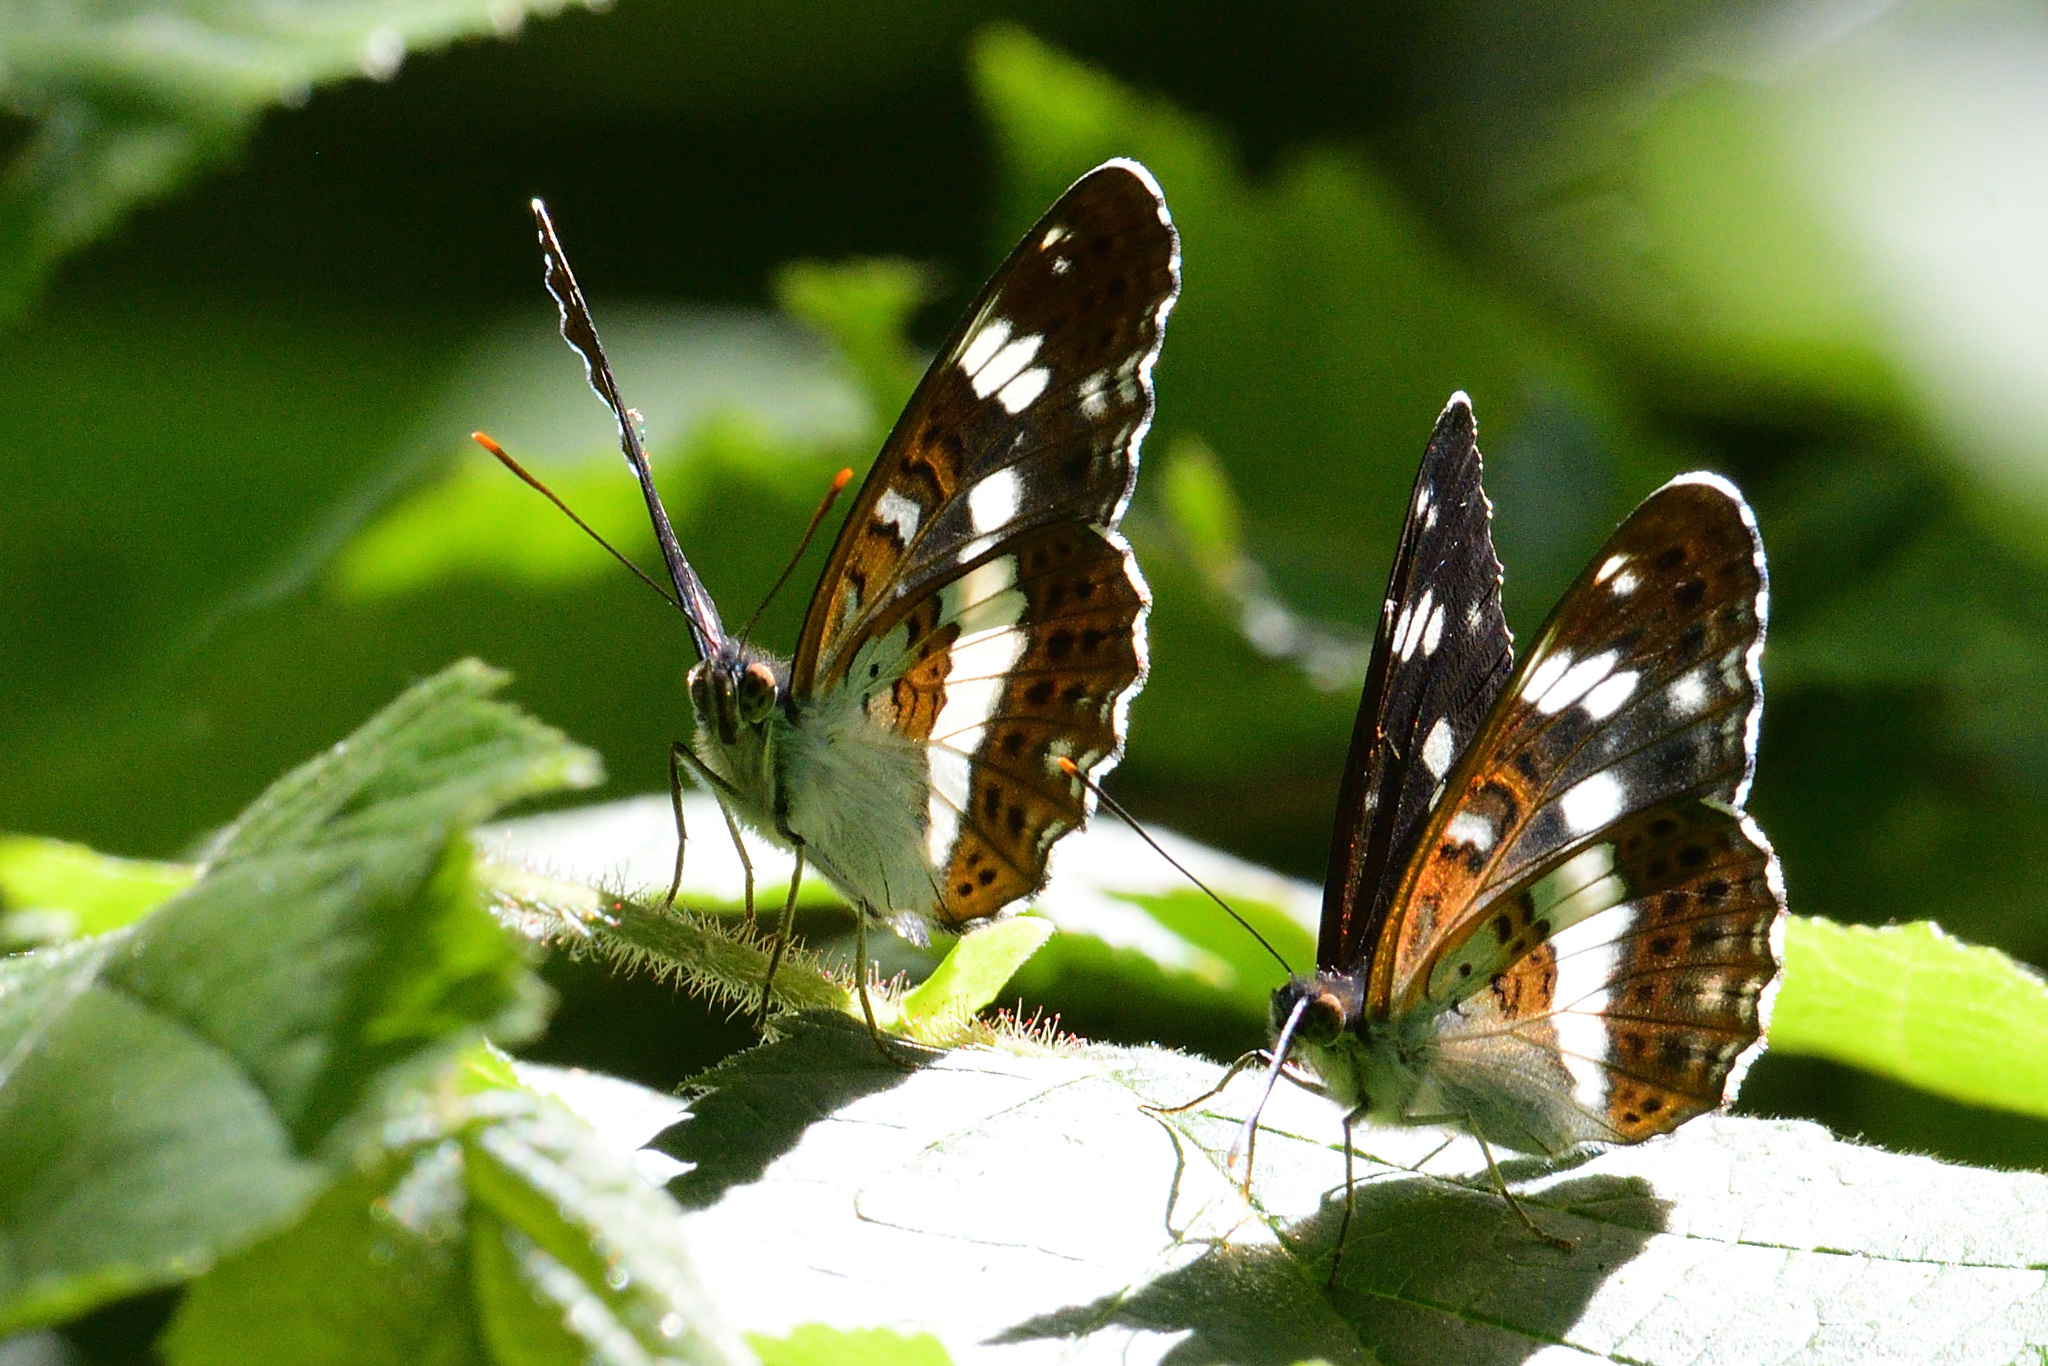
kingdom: Animalia
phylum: Arthropoda
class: Insecta
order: Lepidoptera
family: Nymphalidae
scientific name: Nymphalidae
